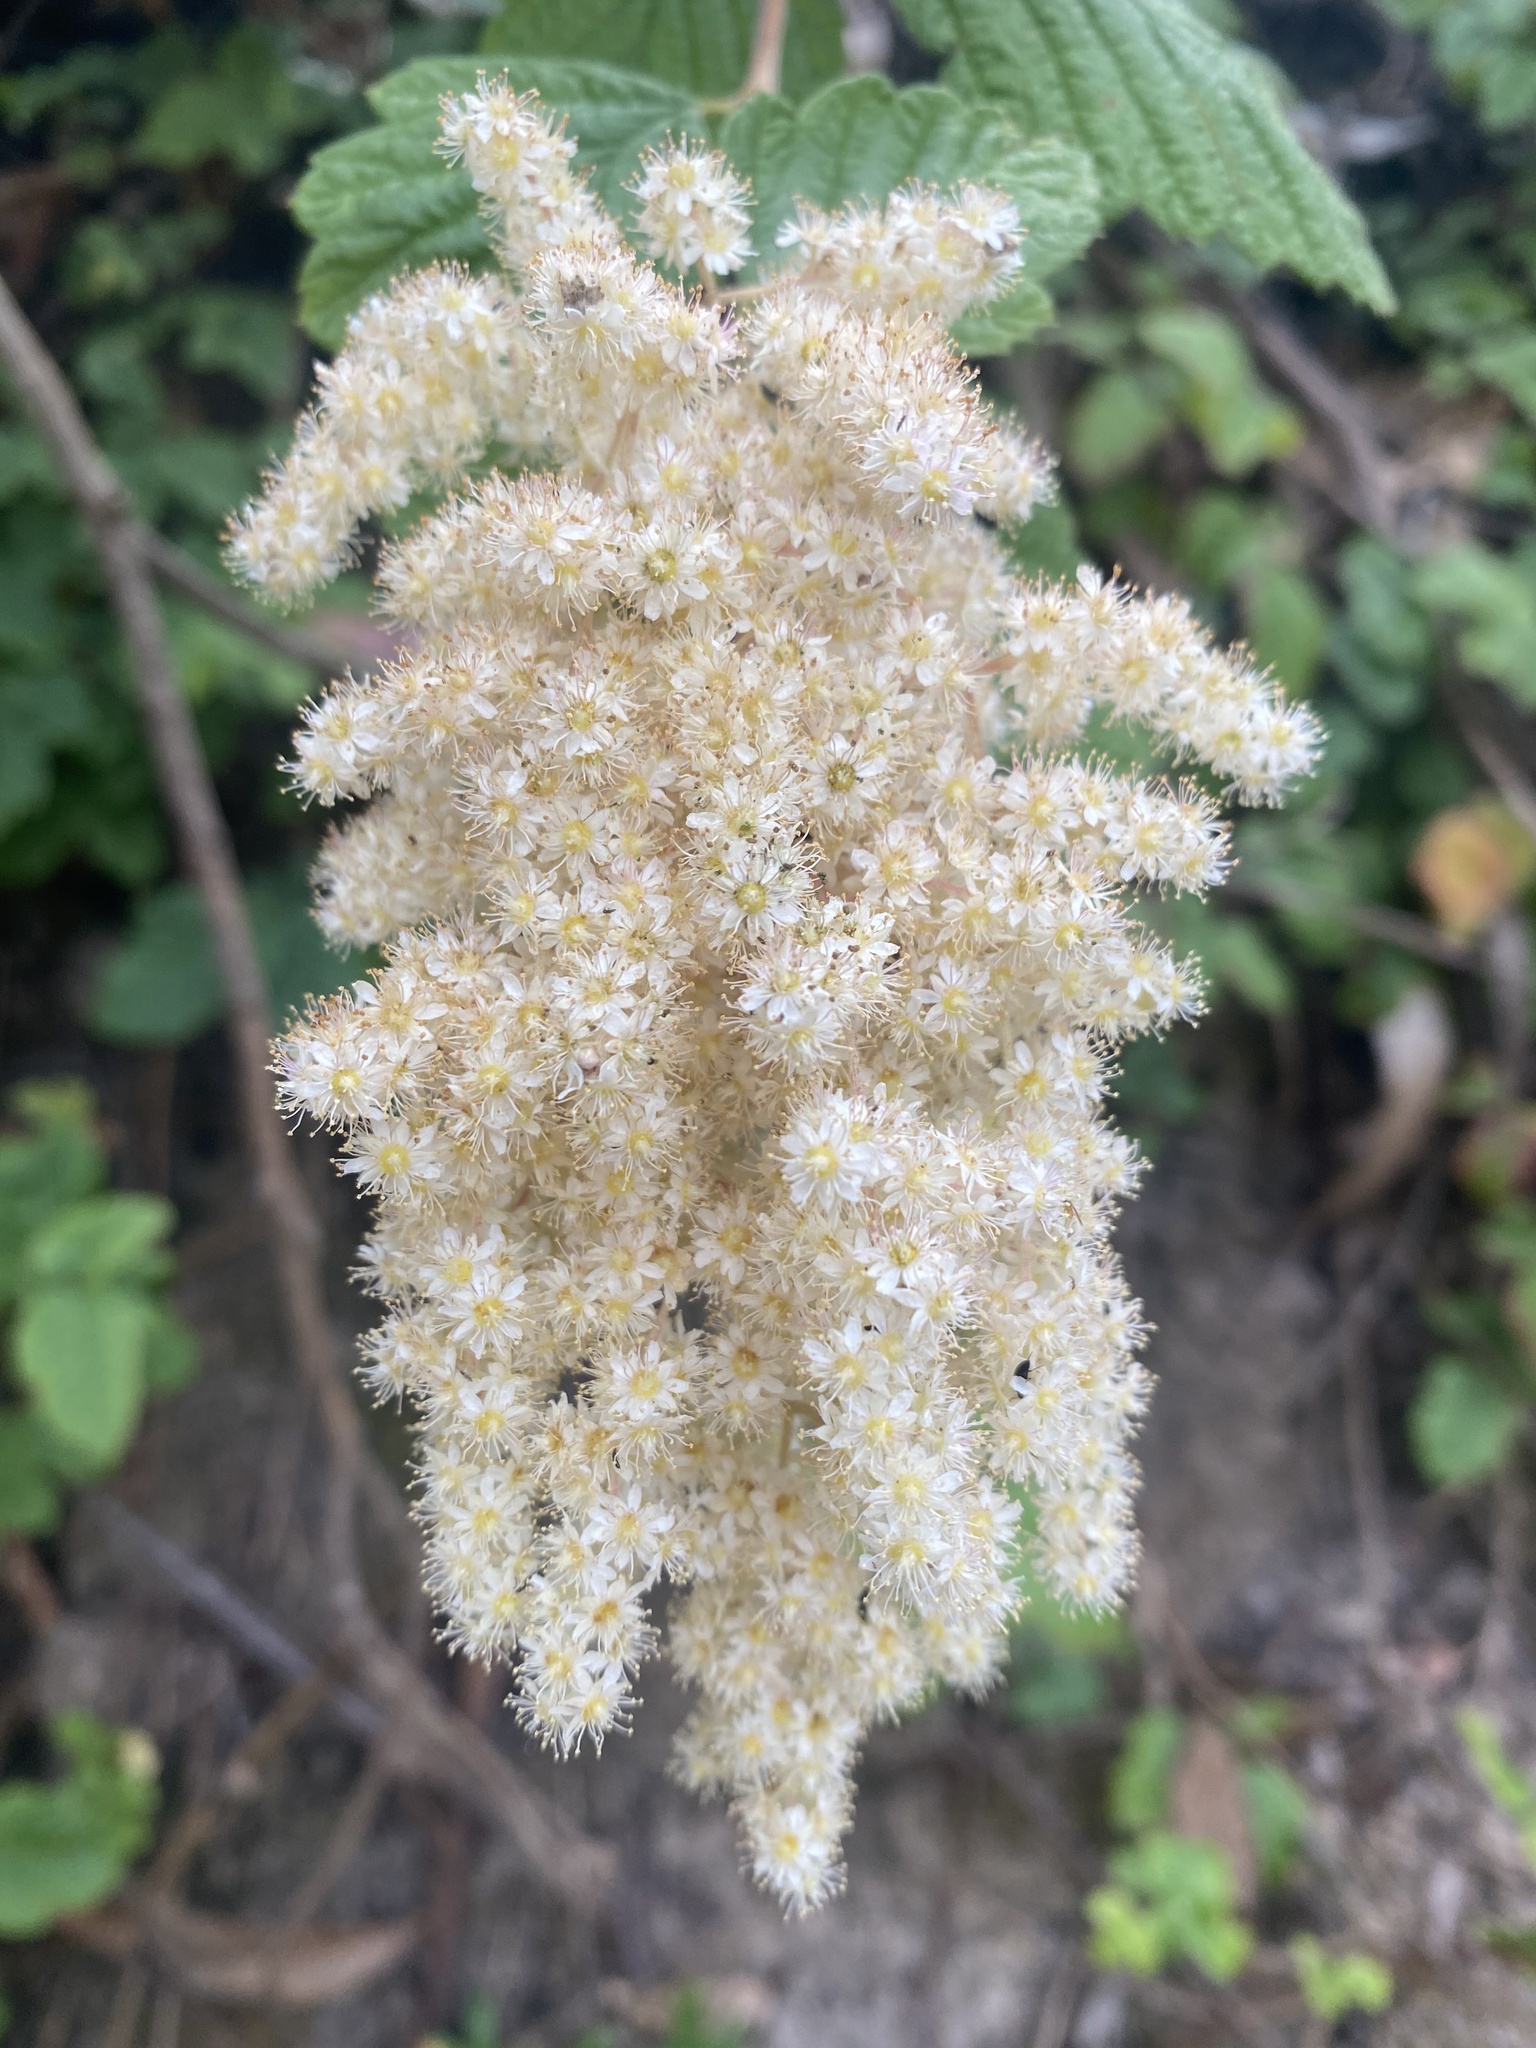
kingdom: Plantae
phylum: Tracheophyta
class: Magnoliopsida
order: Rosales
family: Rosaceae
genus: Holodiscus
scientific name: Holodiscus discolor
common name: Oceanspray
